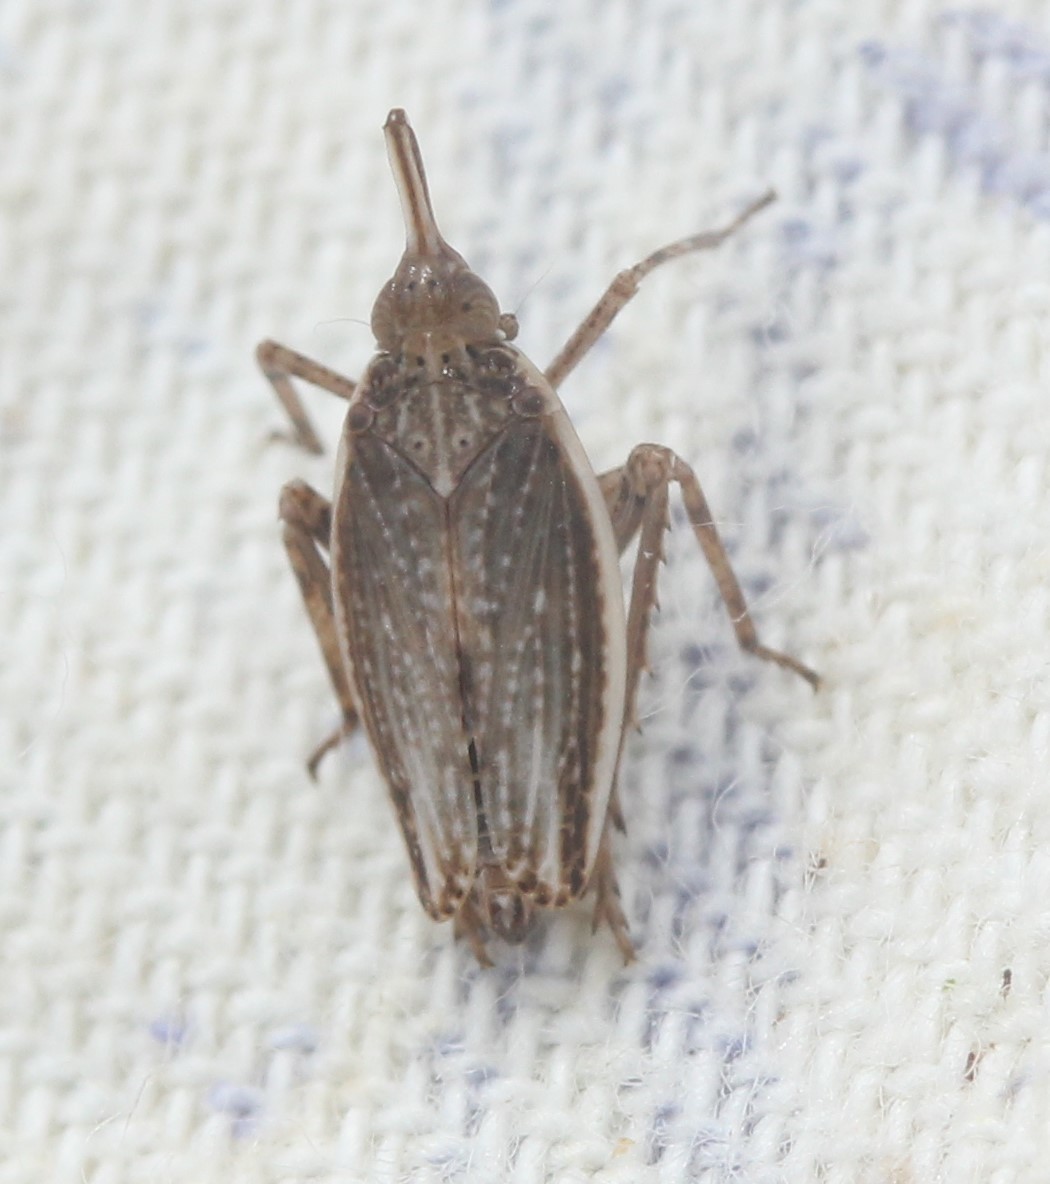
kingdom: Animalia
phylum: Arthropoda
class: Insecta
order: Hemiptera
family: Dictyopharidae
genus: Scolops
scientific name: Scolops angustatus
